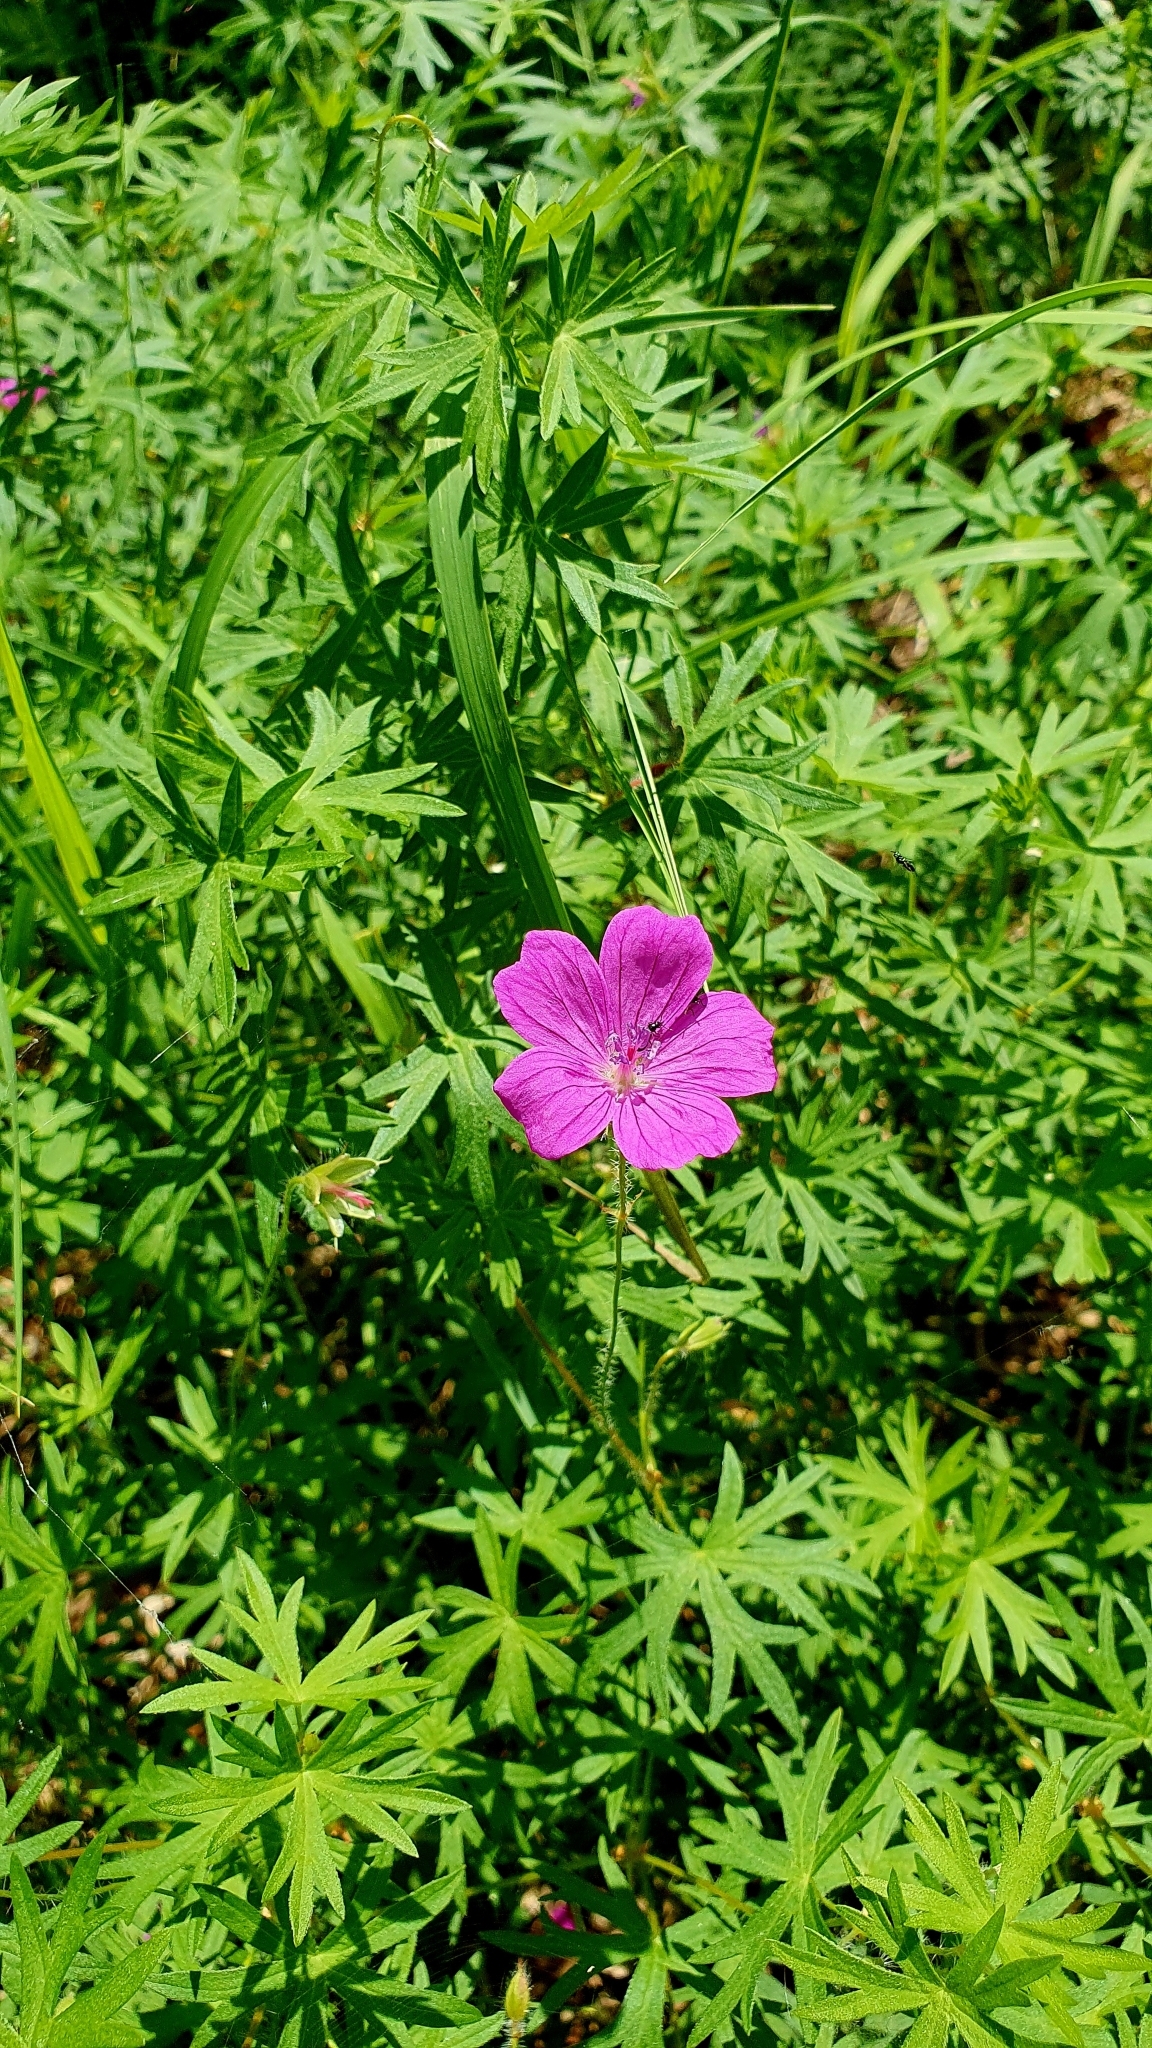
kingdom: Plantae
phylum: Tracheophyta
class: Magnoliopsida
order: Geraniales
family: Geraniaceae
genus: Geranium
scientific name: Geranium sanguineum
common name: Bloody crane's-bill
